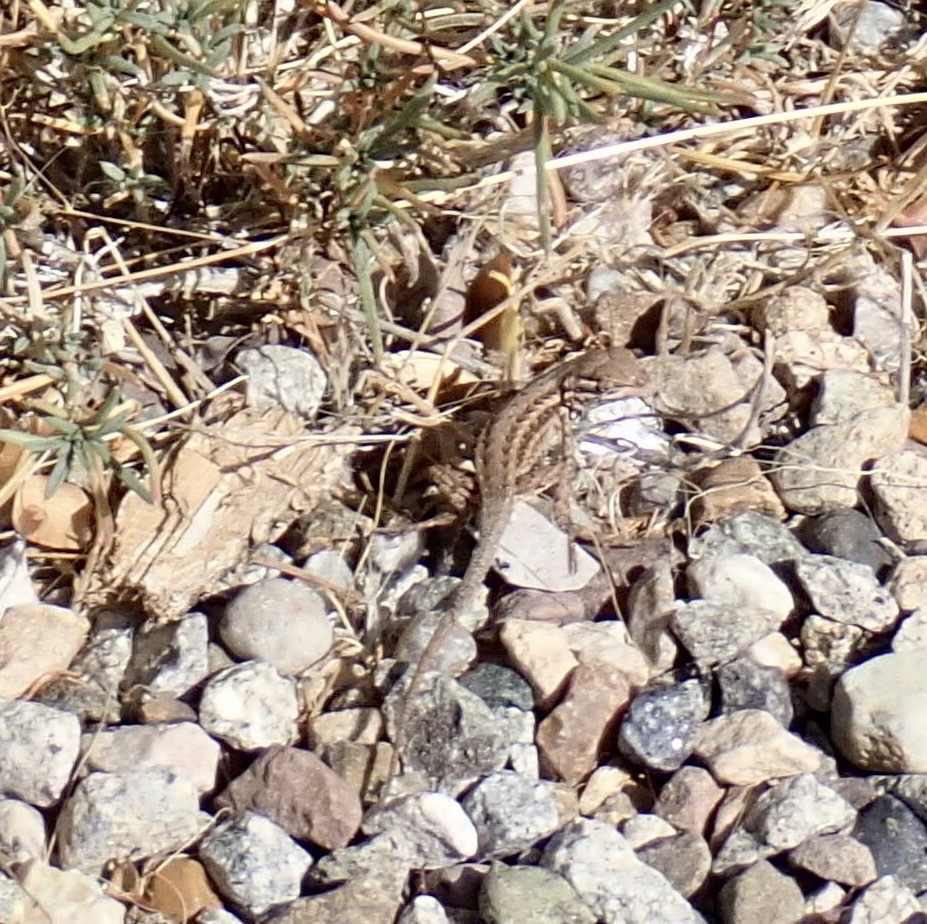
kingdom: Animalia
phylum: Chordata
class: Squamata
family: Phrynosomatidae
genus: Sceloporus
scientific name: Sceloporus graciosus
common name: Sagebrush lizard
